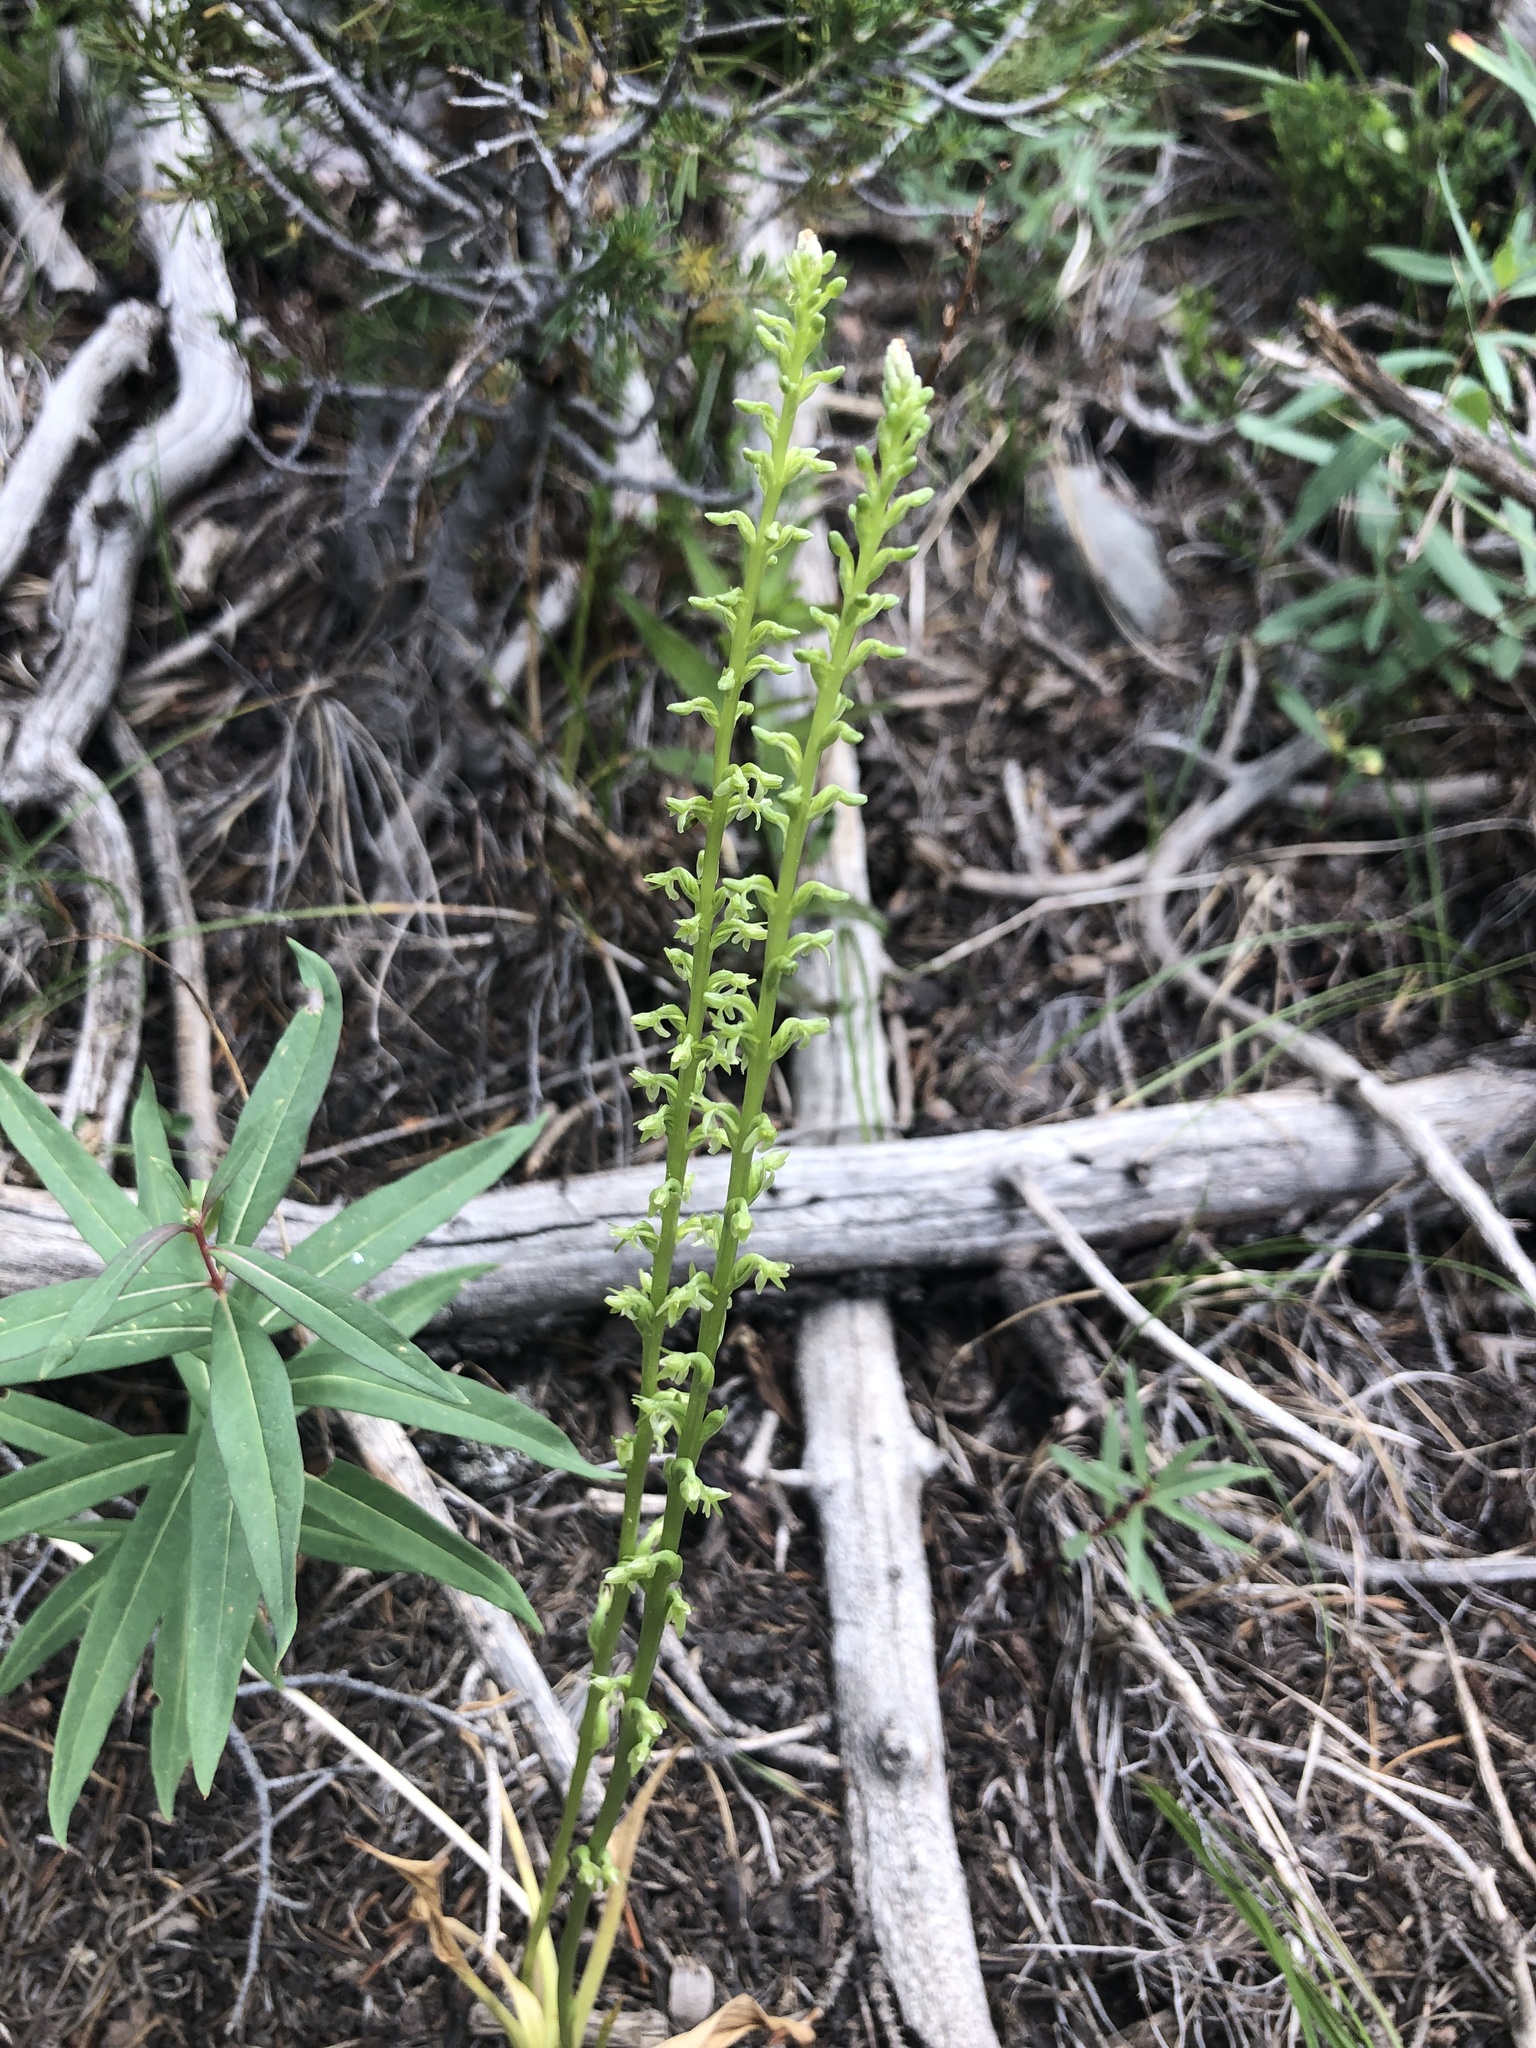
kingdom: Plantae
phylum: Tracheophyta
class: Liliopsida
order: Asparagales
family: Orchidaceae
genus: Platanthera
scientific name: Platanthera unalascensis
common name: Alaska bog orchid
